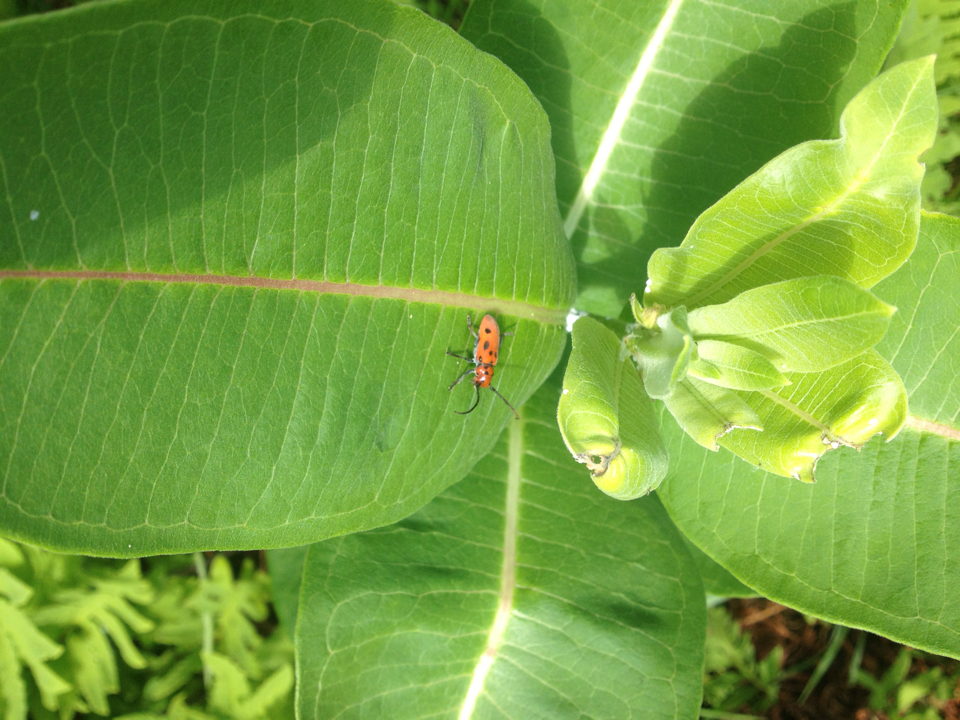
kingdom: Animalia
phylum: Arthropoda
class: Insecta
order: Coleoptera
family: Cerambycidae
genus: Tetraopes
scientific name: Tetraopes tetrophthalmus
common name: Red milkweed beetle
